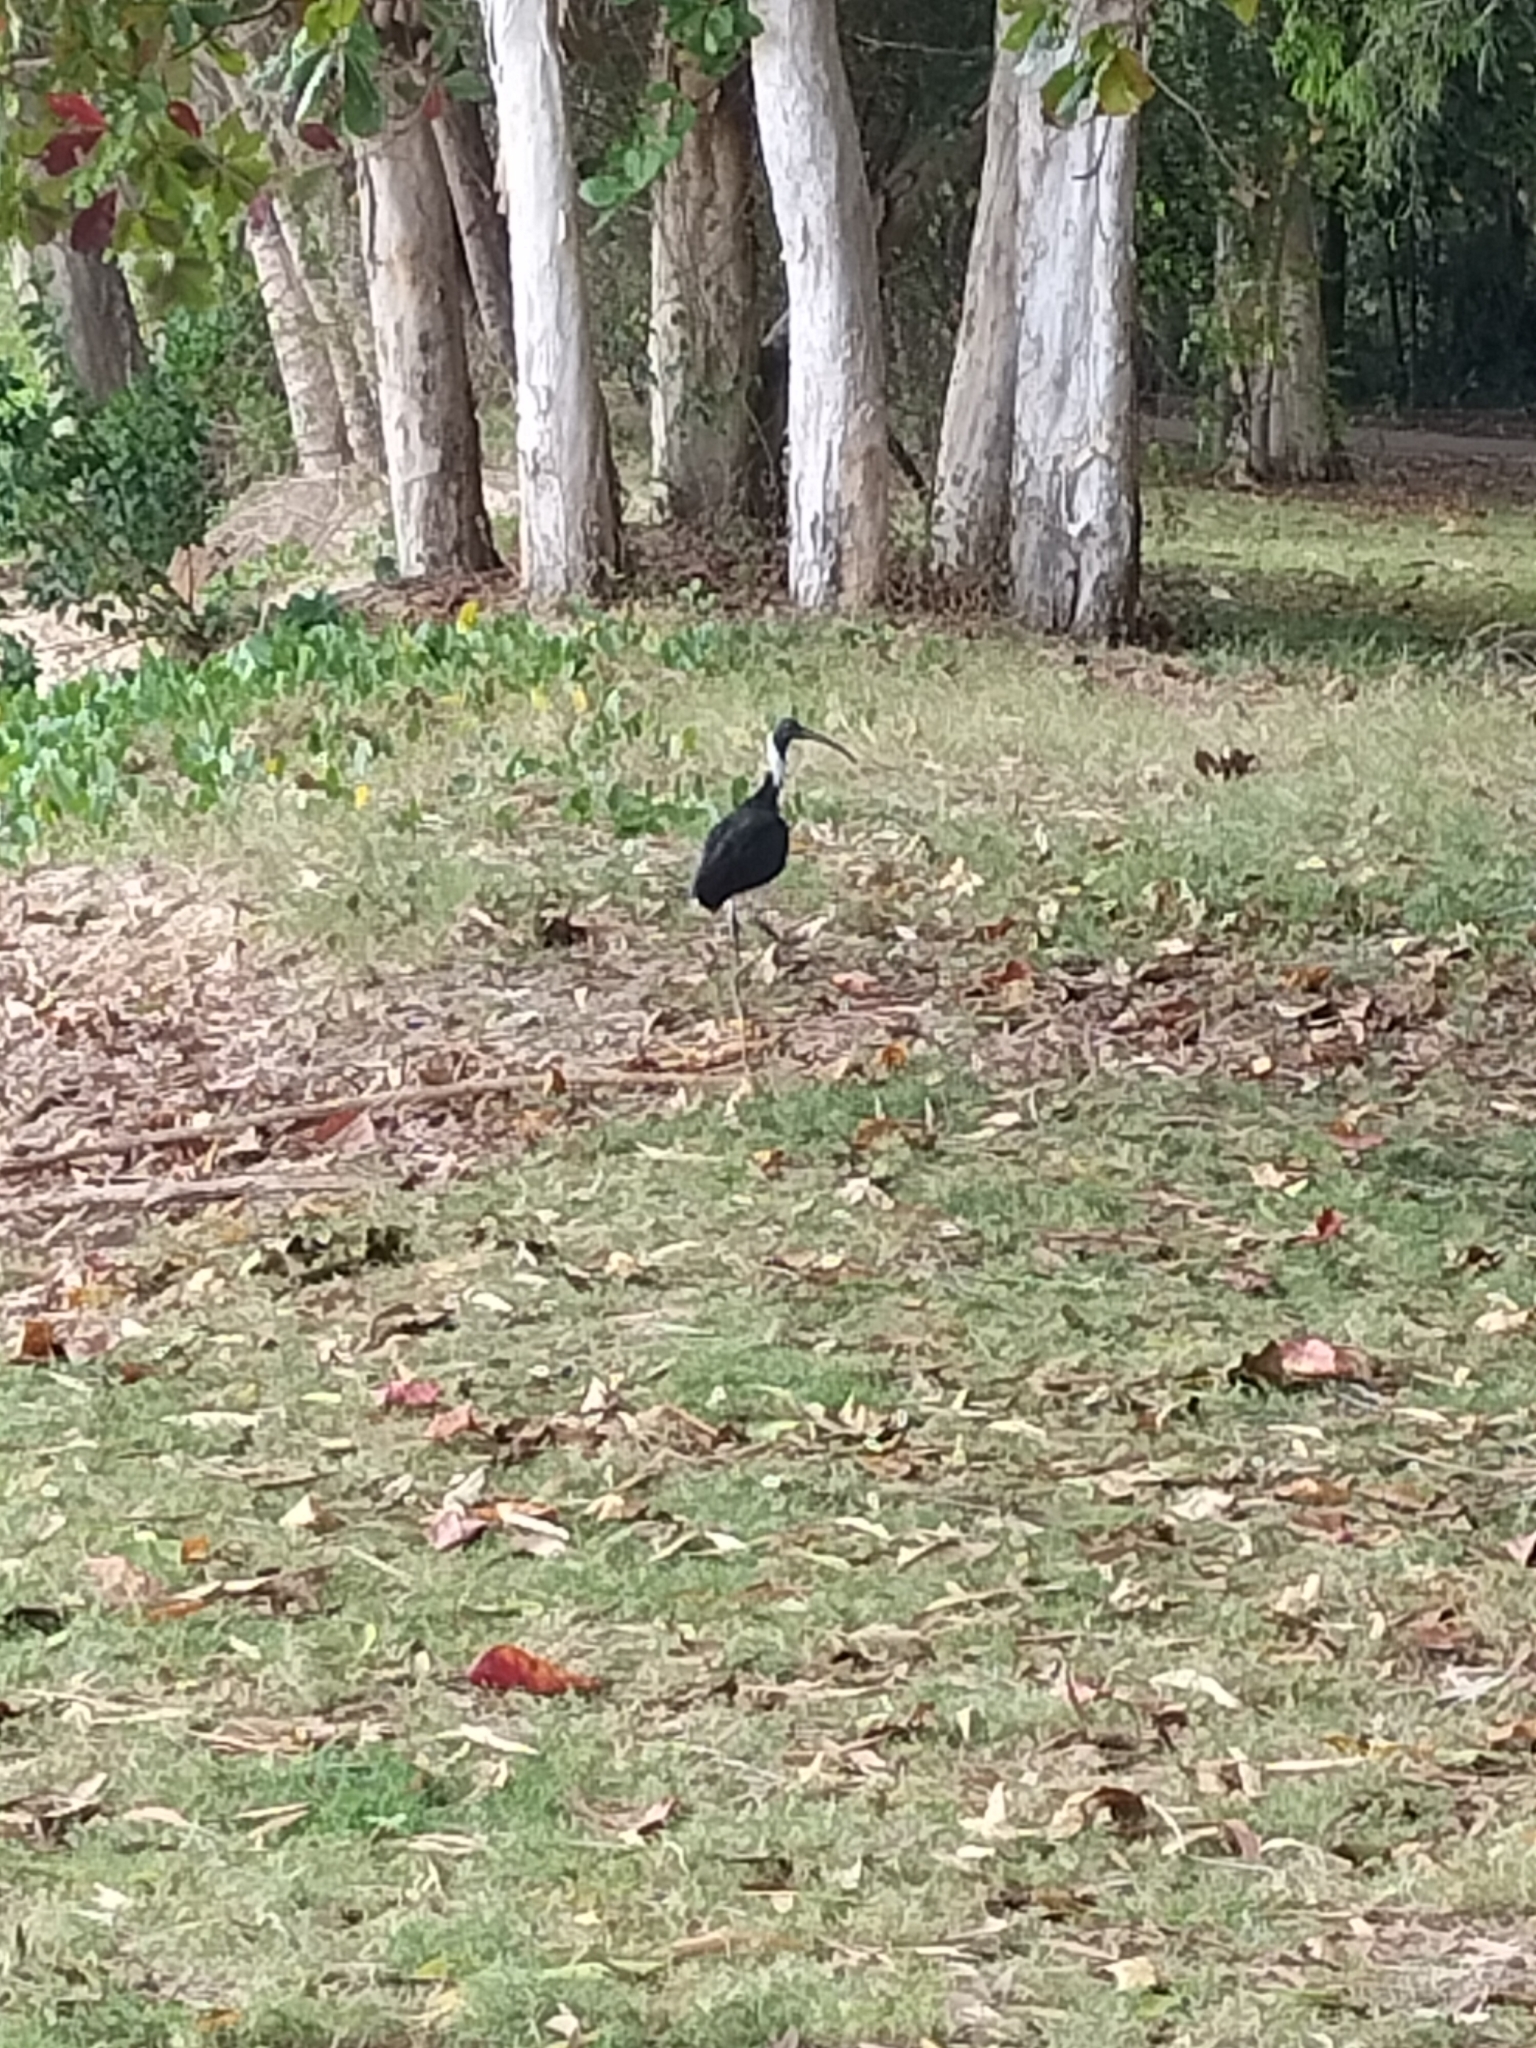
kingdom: Animalia
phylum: Chordata
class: Aves
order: Pelecaniformes
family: Threskiornithidae
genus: Threskiornis
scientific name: Threskiornis spinicollis
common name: Straw-necked ibis
